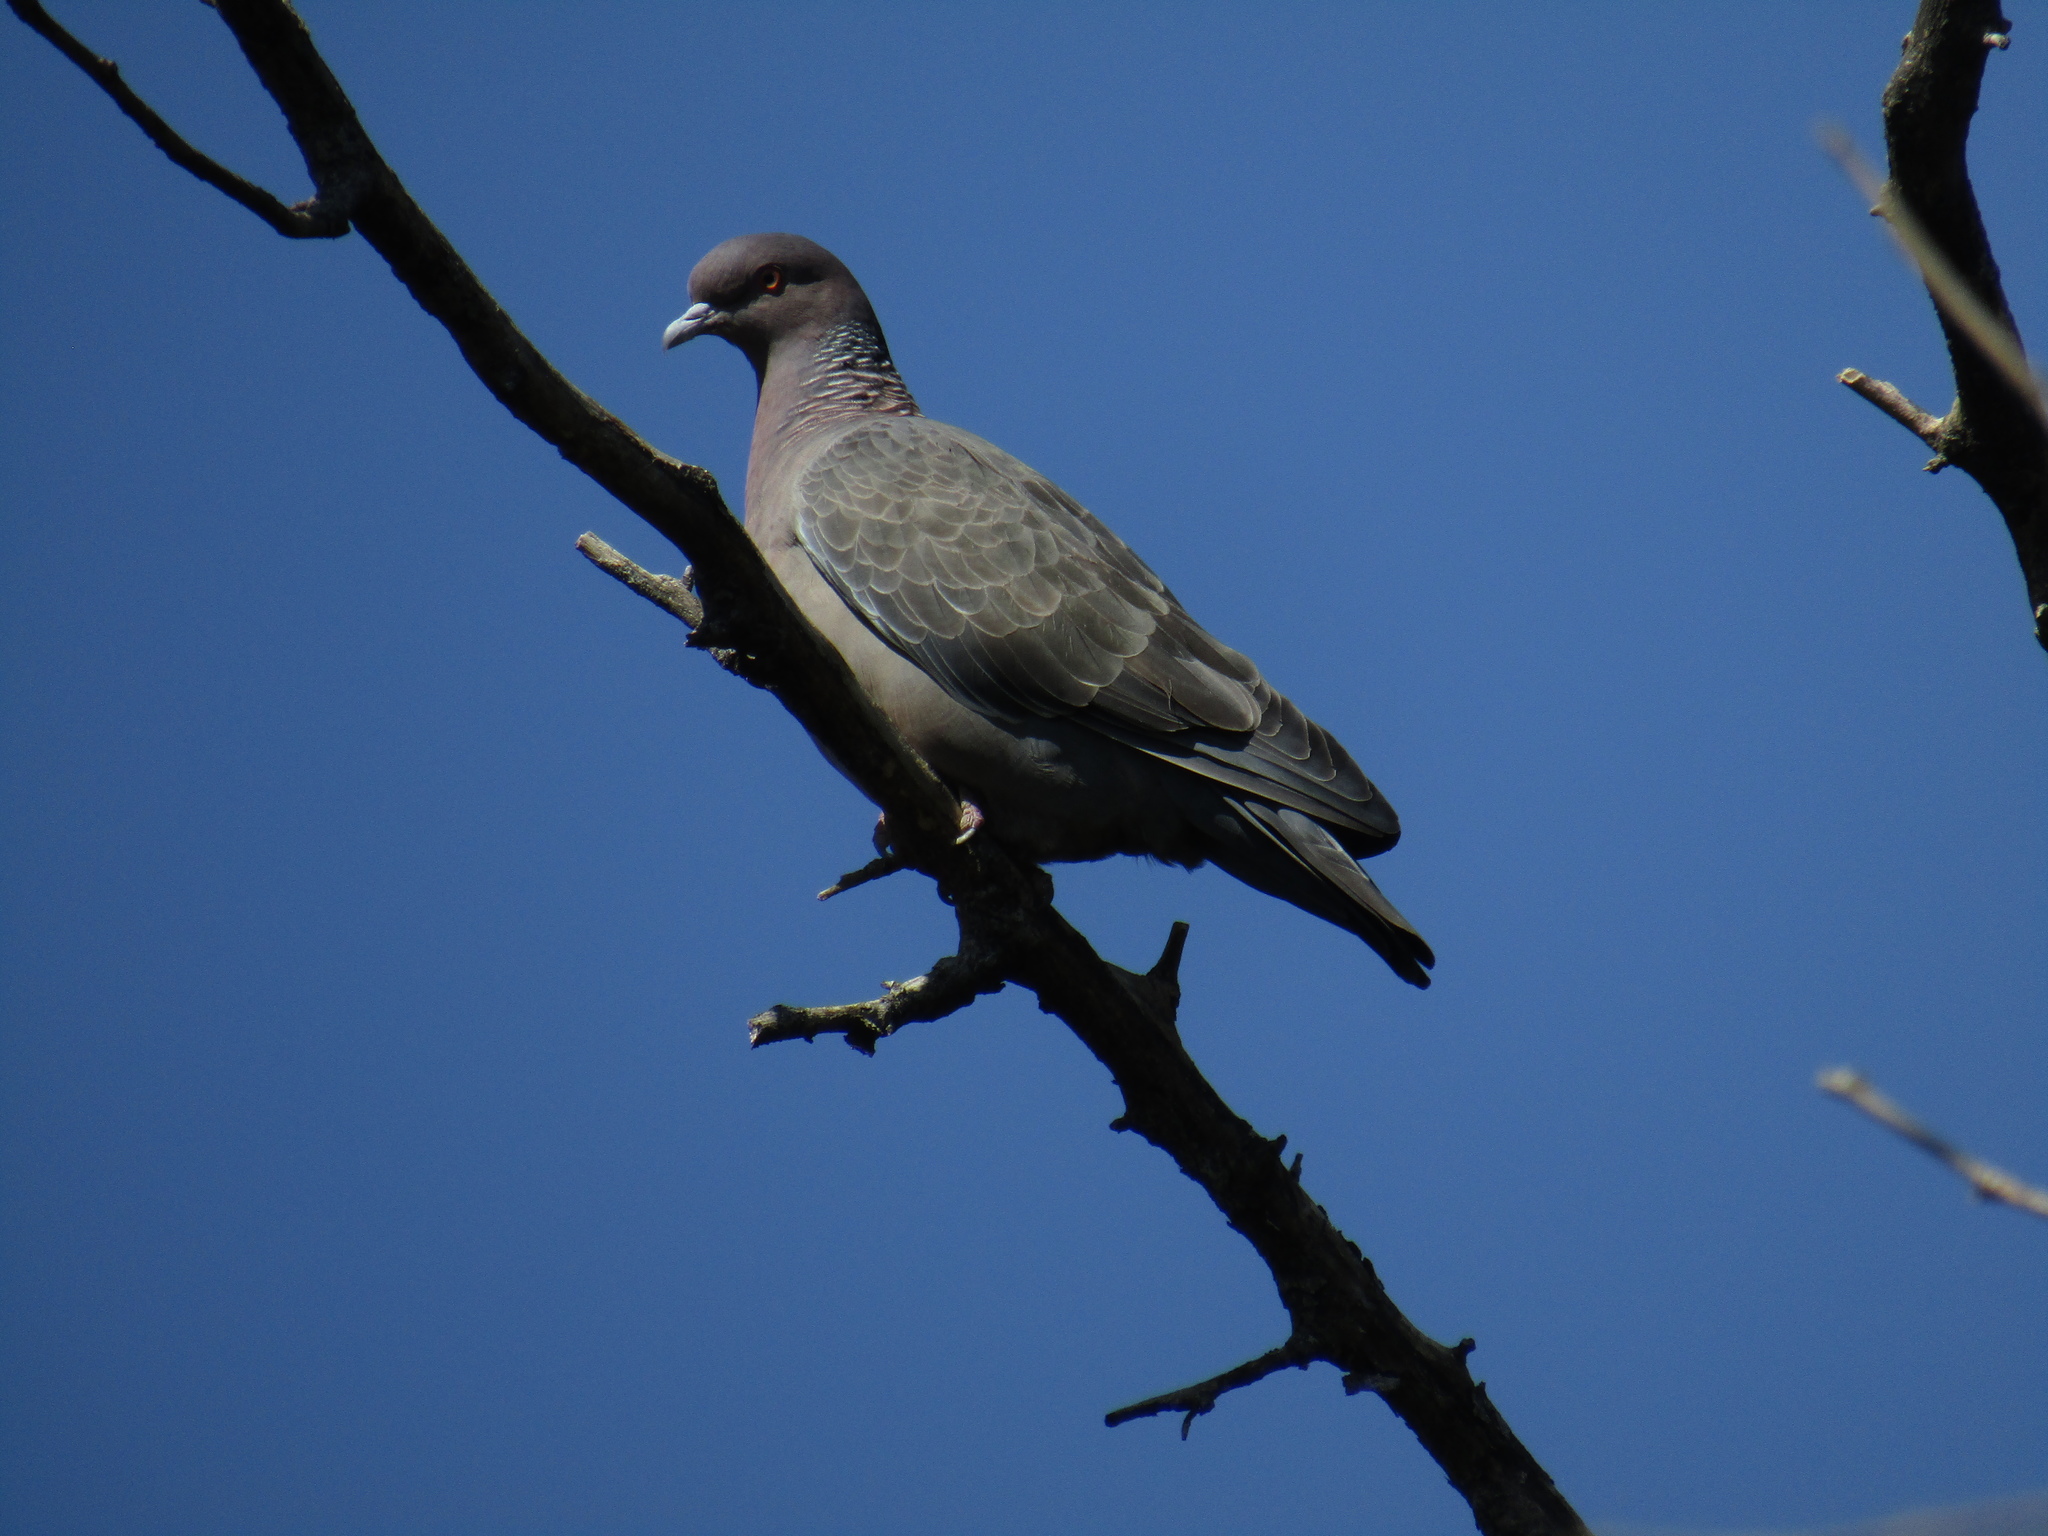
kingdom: Animalia
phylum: Chordata
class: Aves
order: Columbiformes
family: Columbidae
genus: Patagioenas
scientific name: Patagioenas picazuro
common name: Picazuro pigeon
